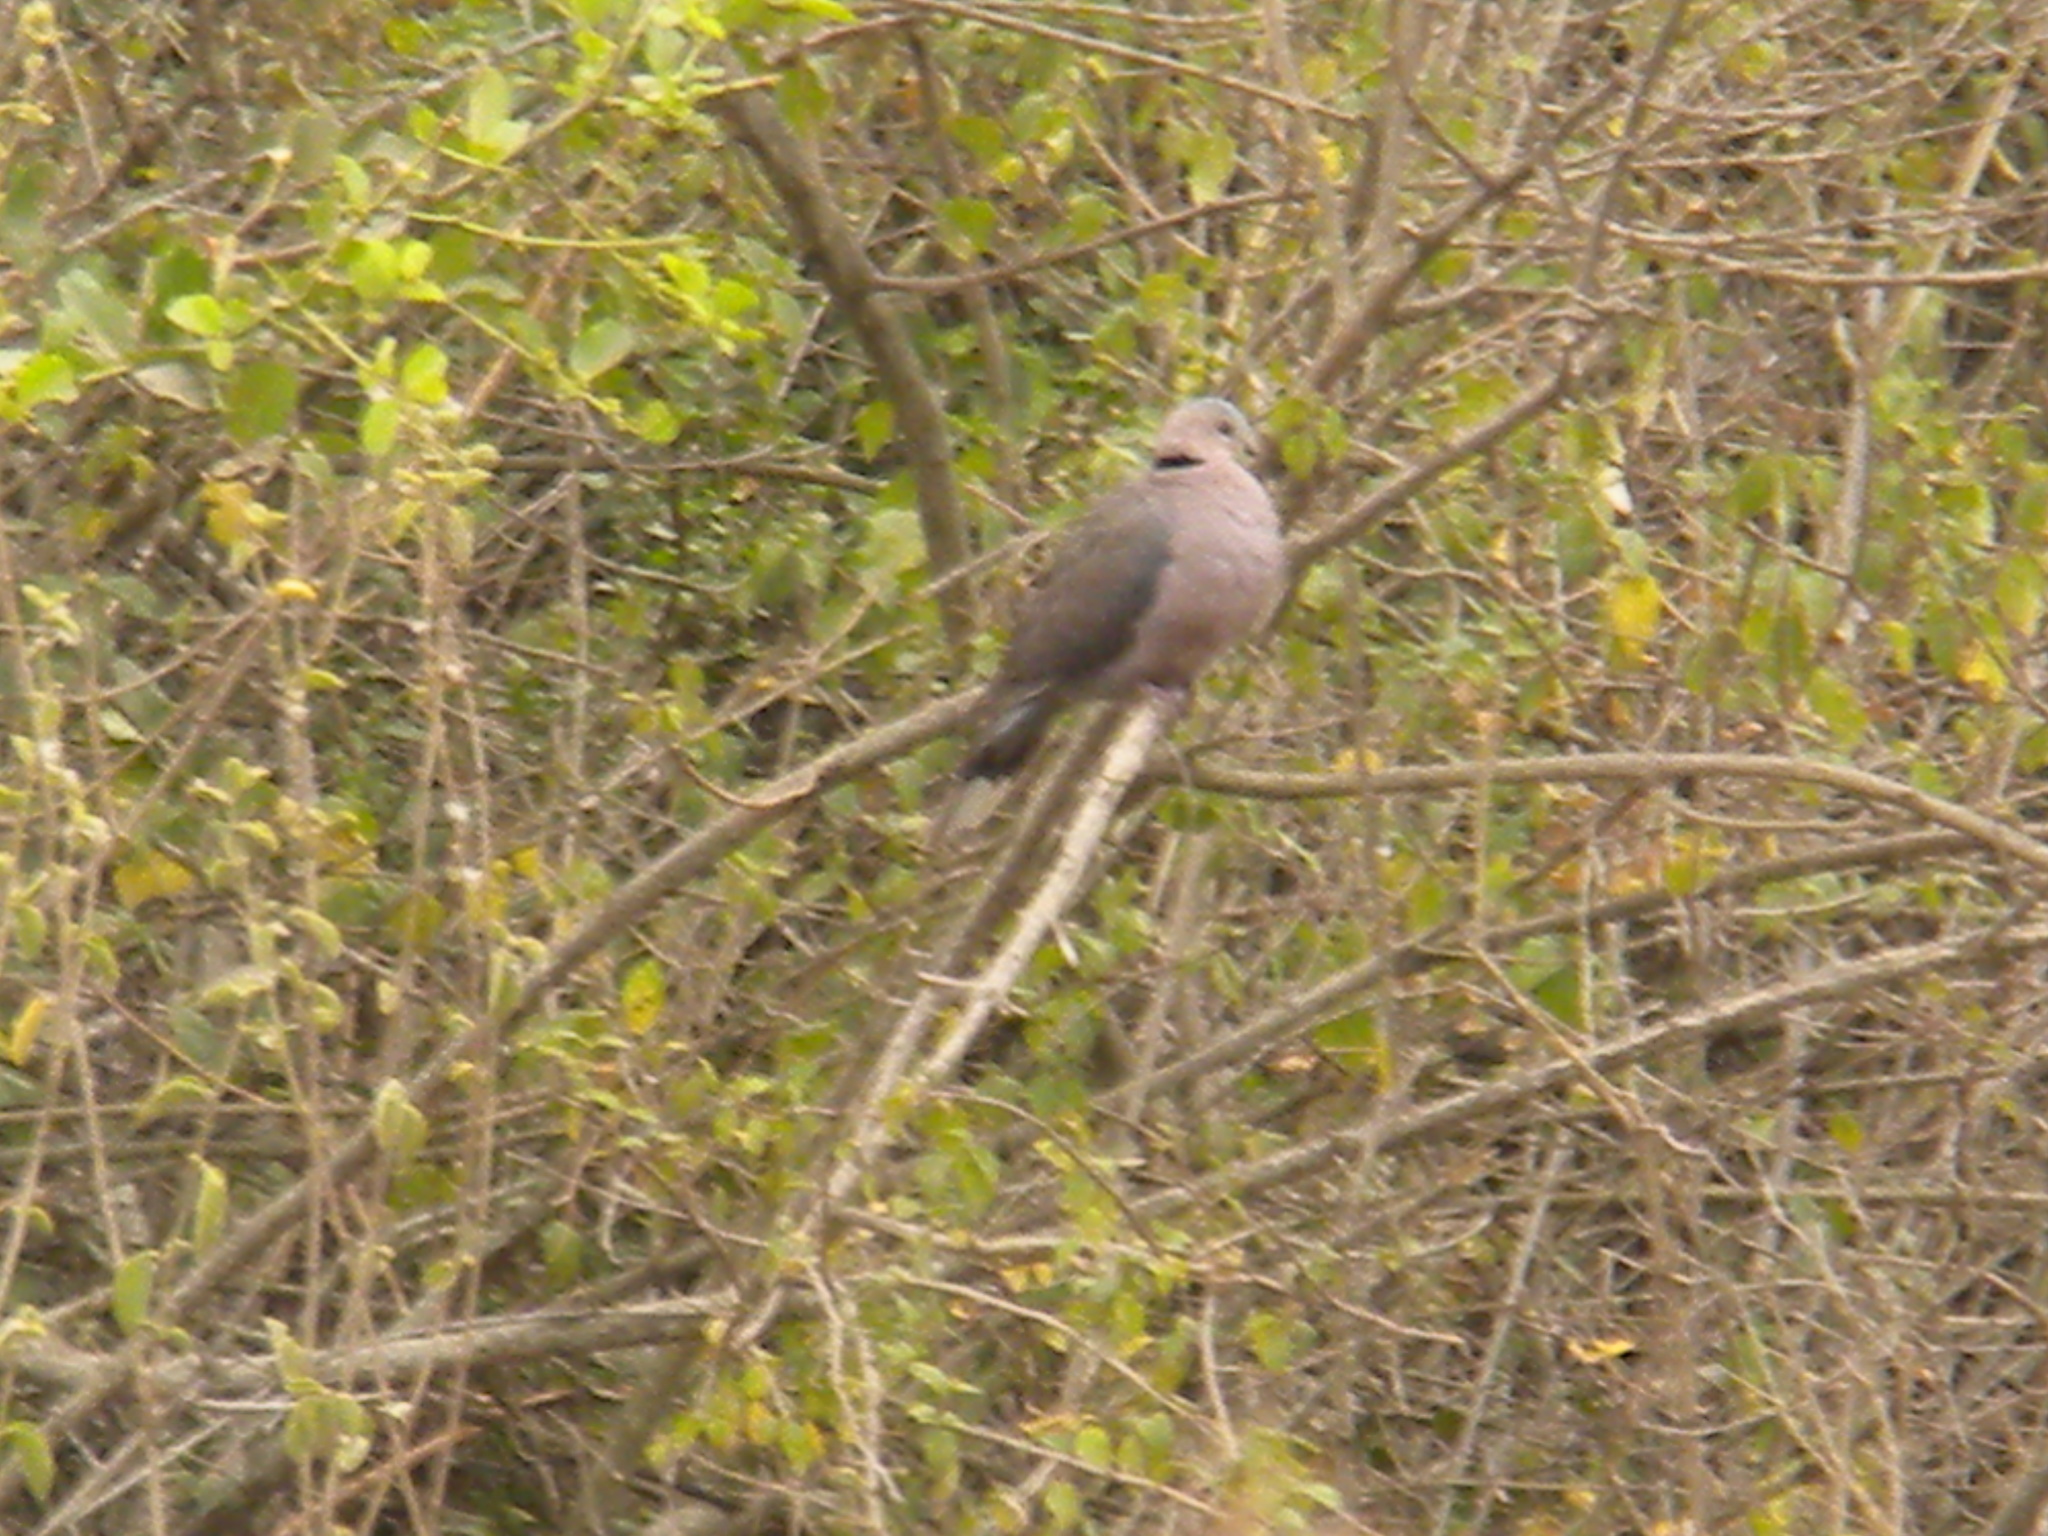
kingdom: Animalia
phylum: Chordata
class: Aves
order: Columbiformes
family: Columbidae
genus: Streptopelia
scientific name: Streptopelia semitorquata
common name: Red-eyed dove
